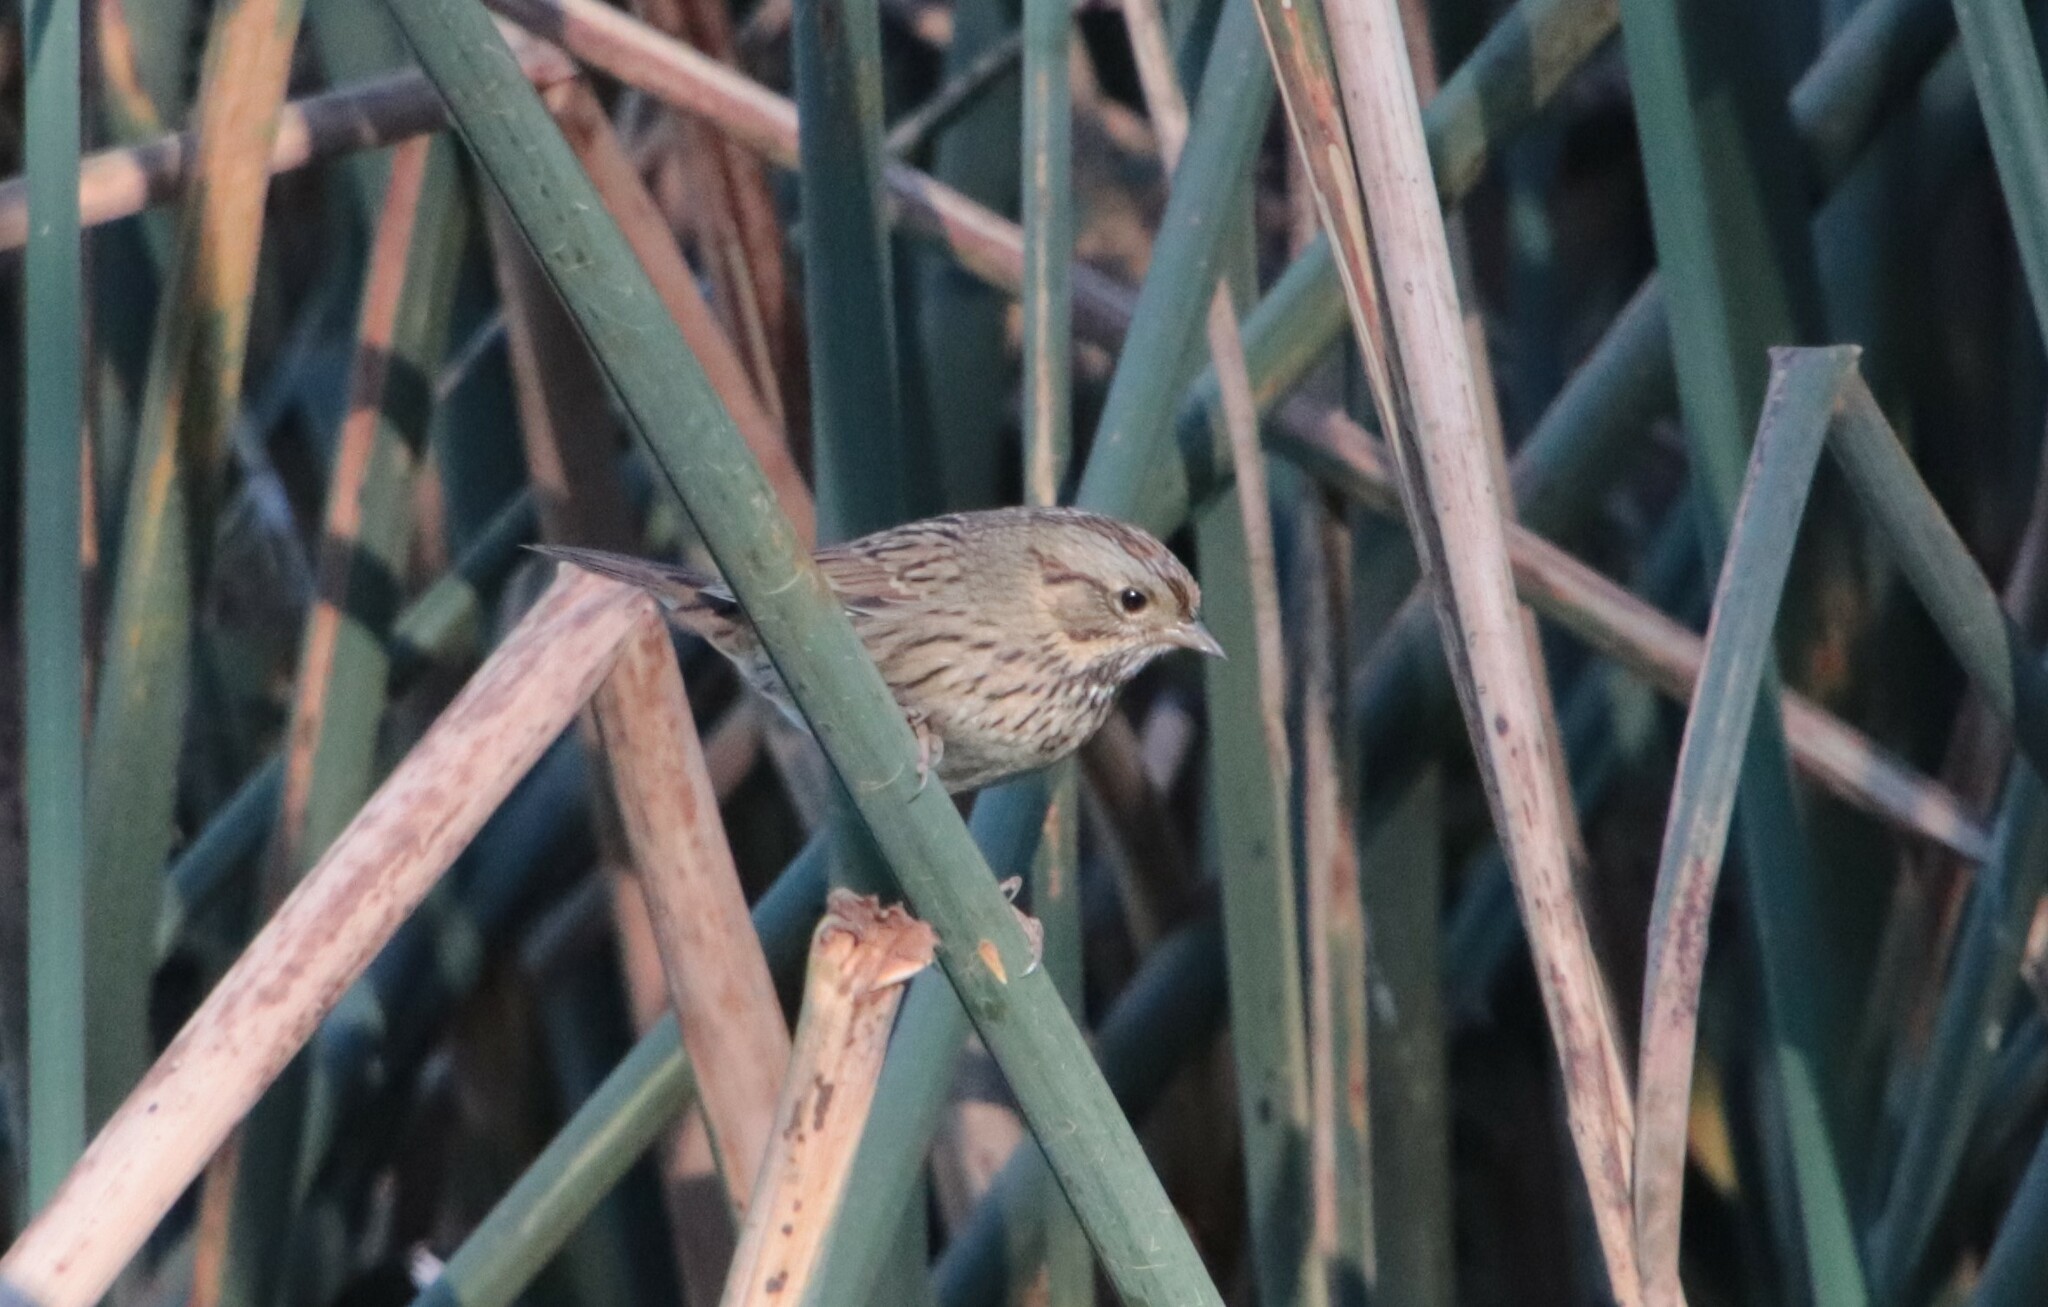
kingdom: Animalia
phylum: Chordata
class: Aves
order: Passeriformes
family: Passerellidae
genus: Melospiza
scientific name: Melospiza lincolnii
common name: Lincoln's sparrow
